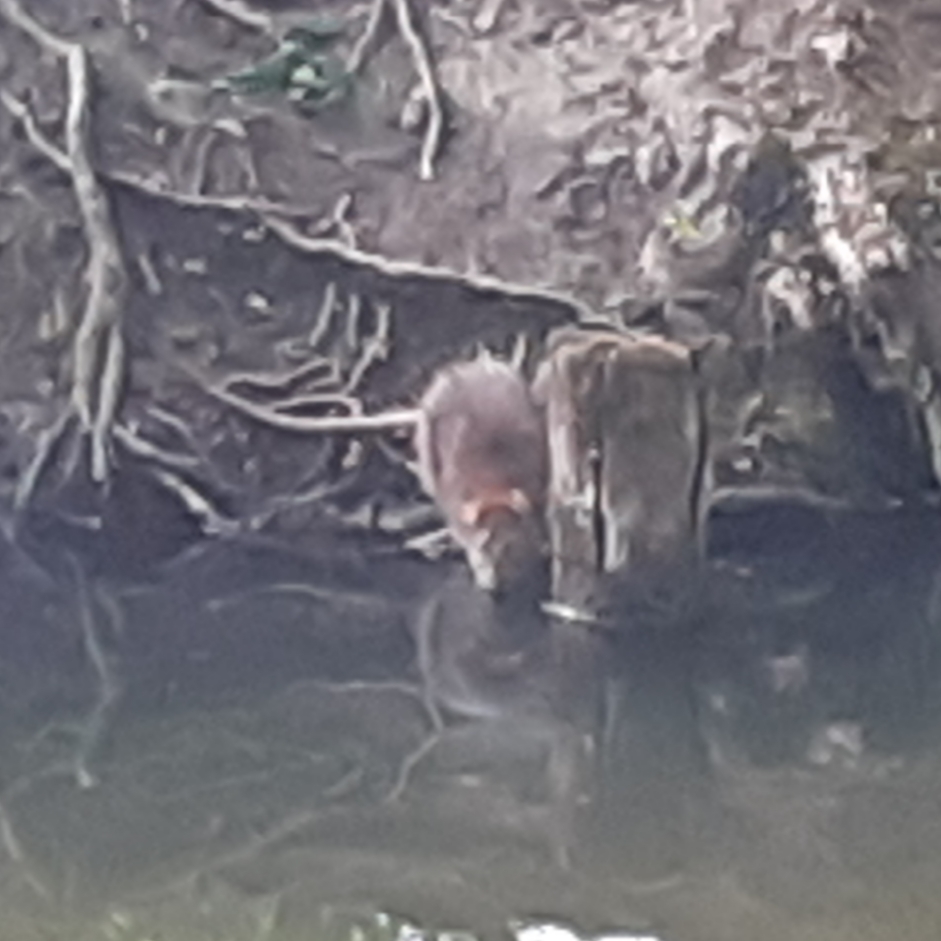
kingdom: Animalia
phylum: Chordata
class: Mammalia
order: Rodentia
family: Muridae
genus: Rattus
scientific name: Rattus norvegicus
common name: Brown rat
